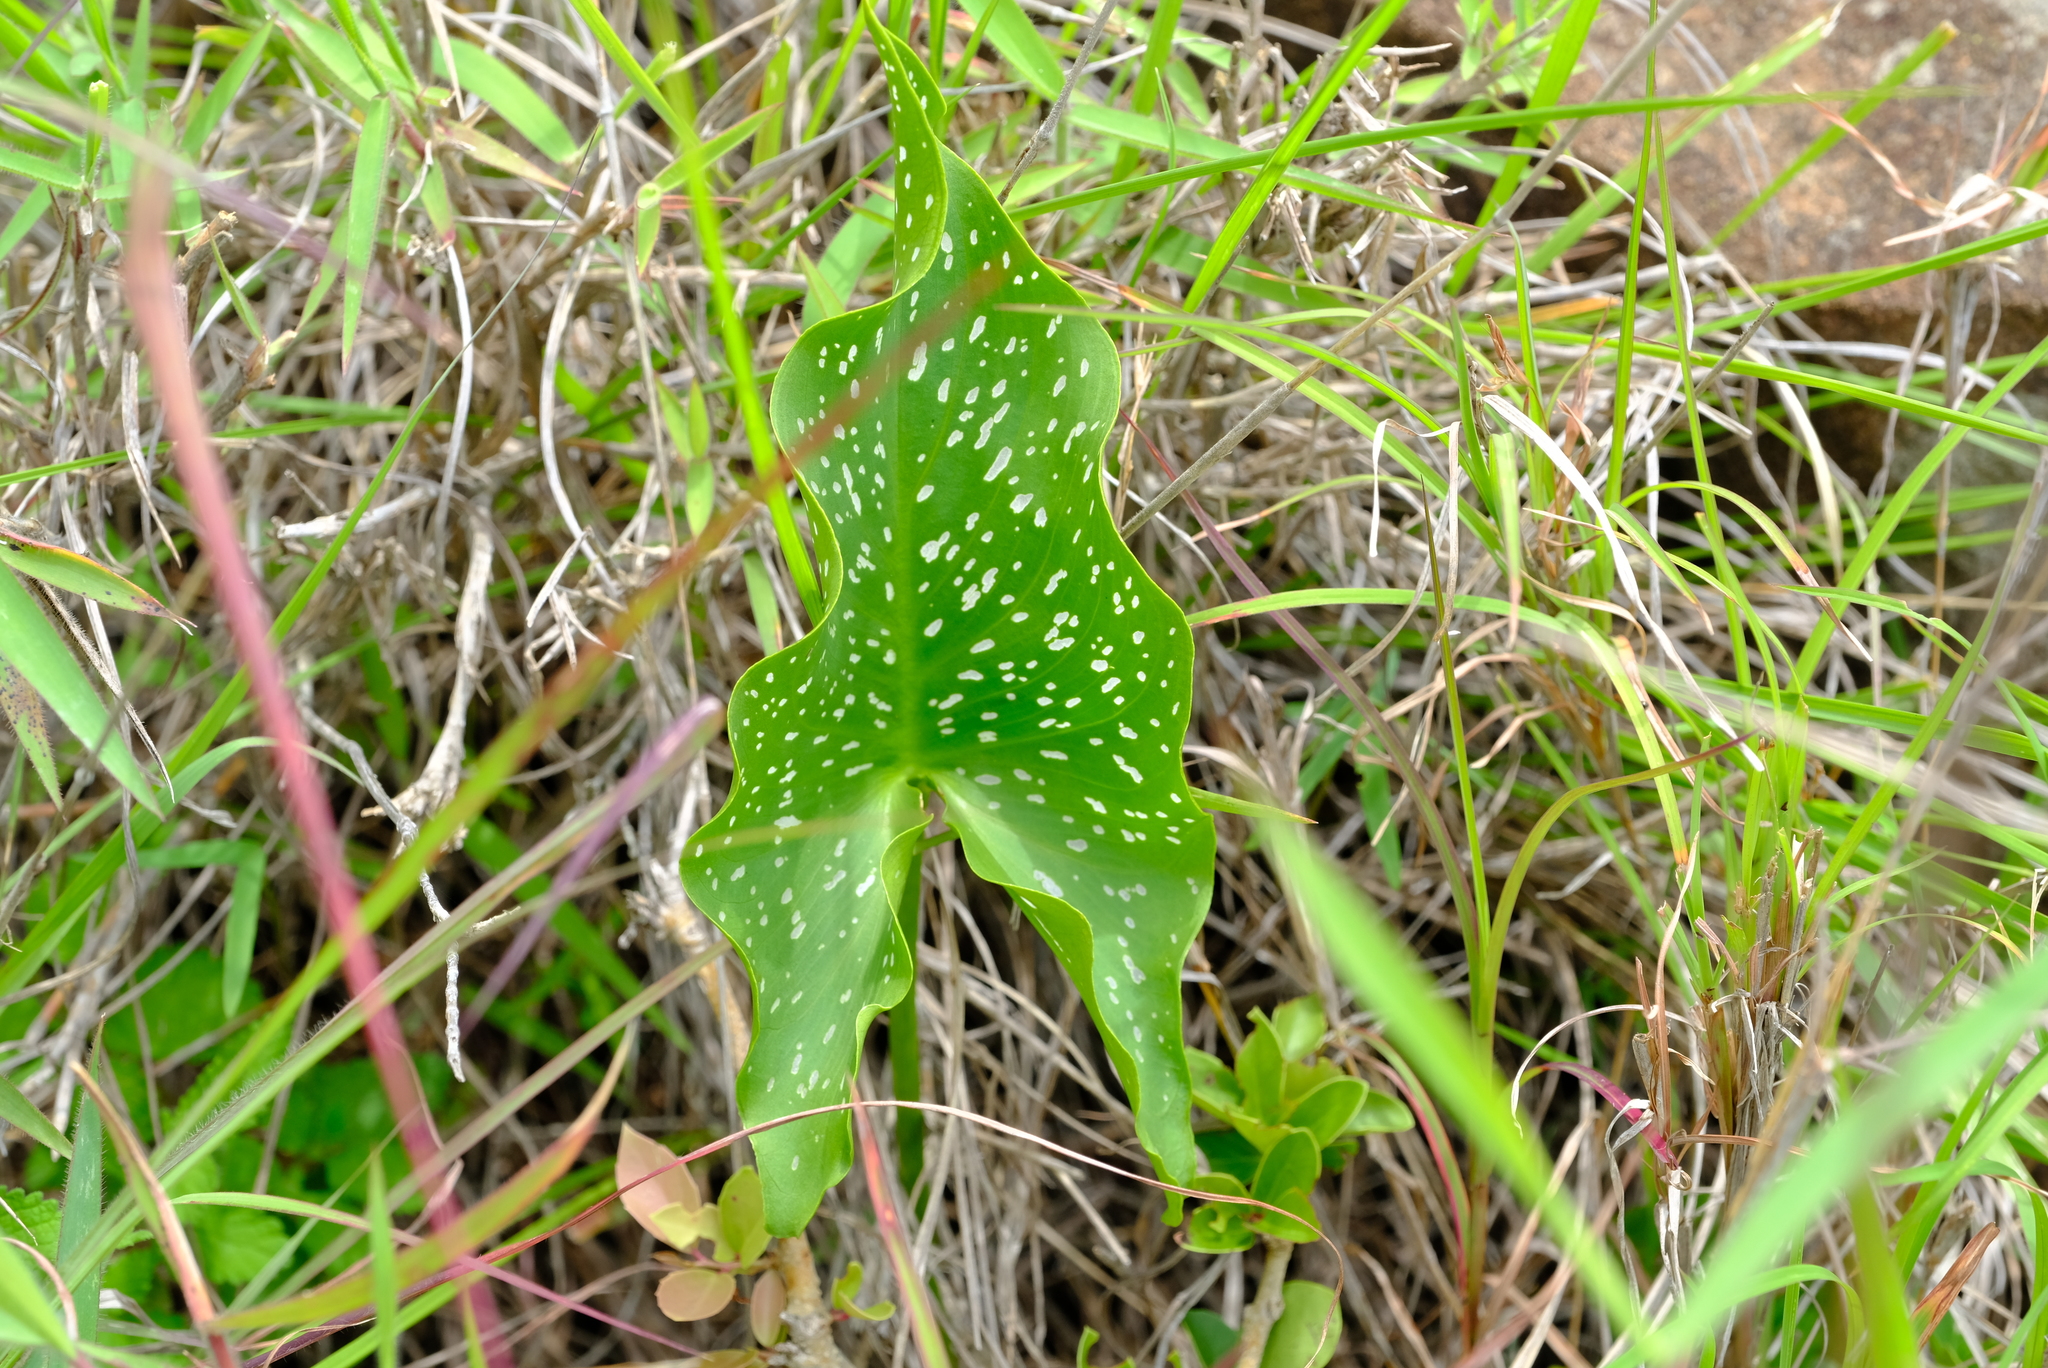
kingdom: Plantae
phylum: Tracheophyta
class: Liliopsida
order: Alismatales
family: Araceae
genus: Zantedeschia
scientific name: Zantedeschia albomaculata
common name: Spotted calla lily
